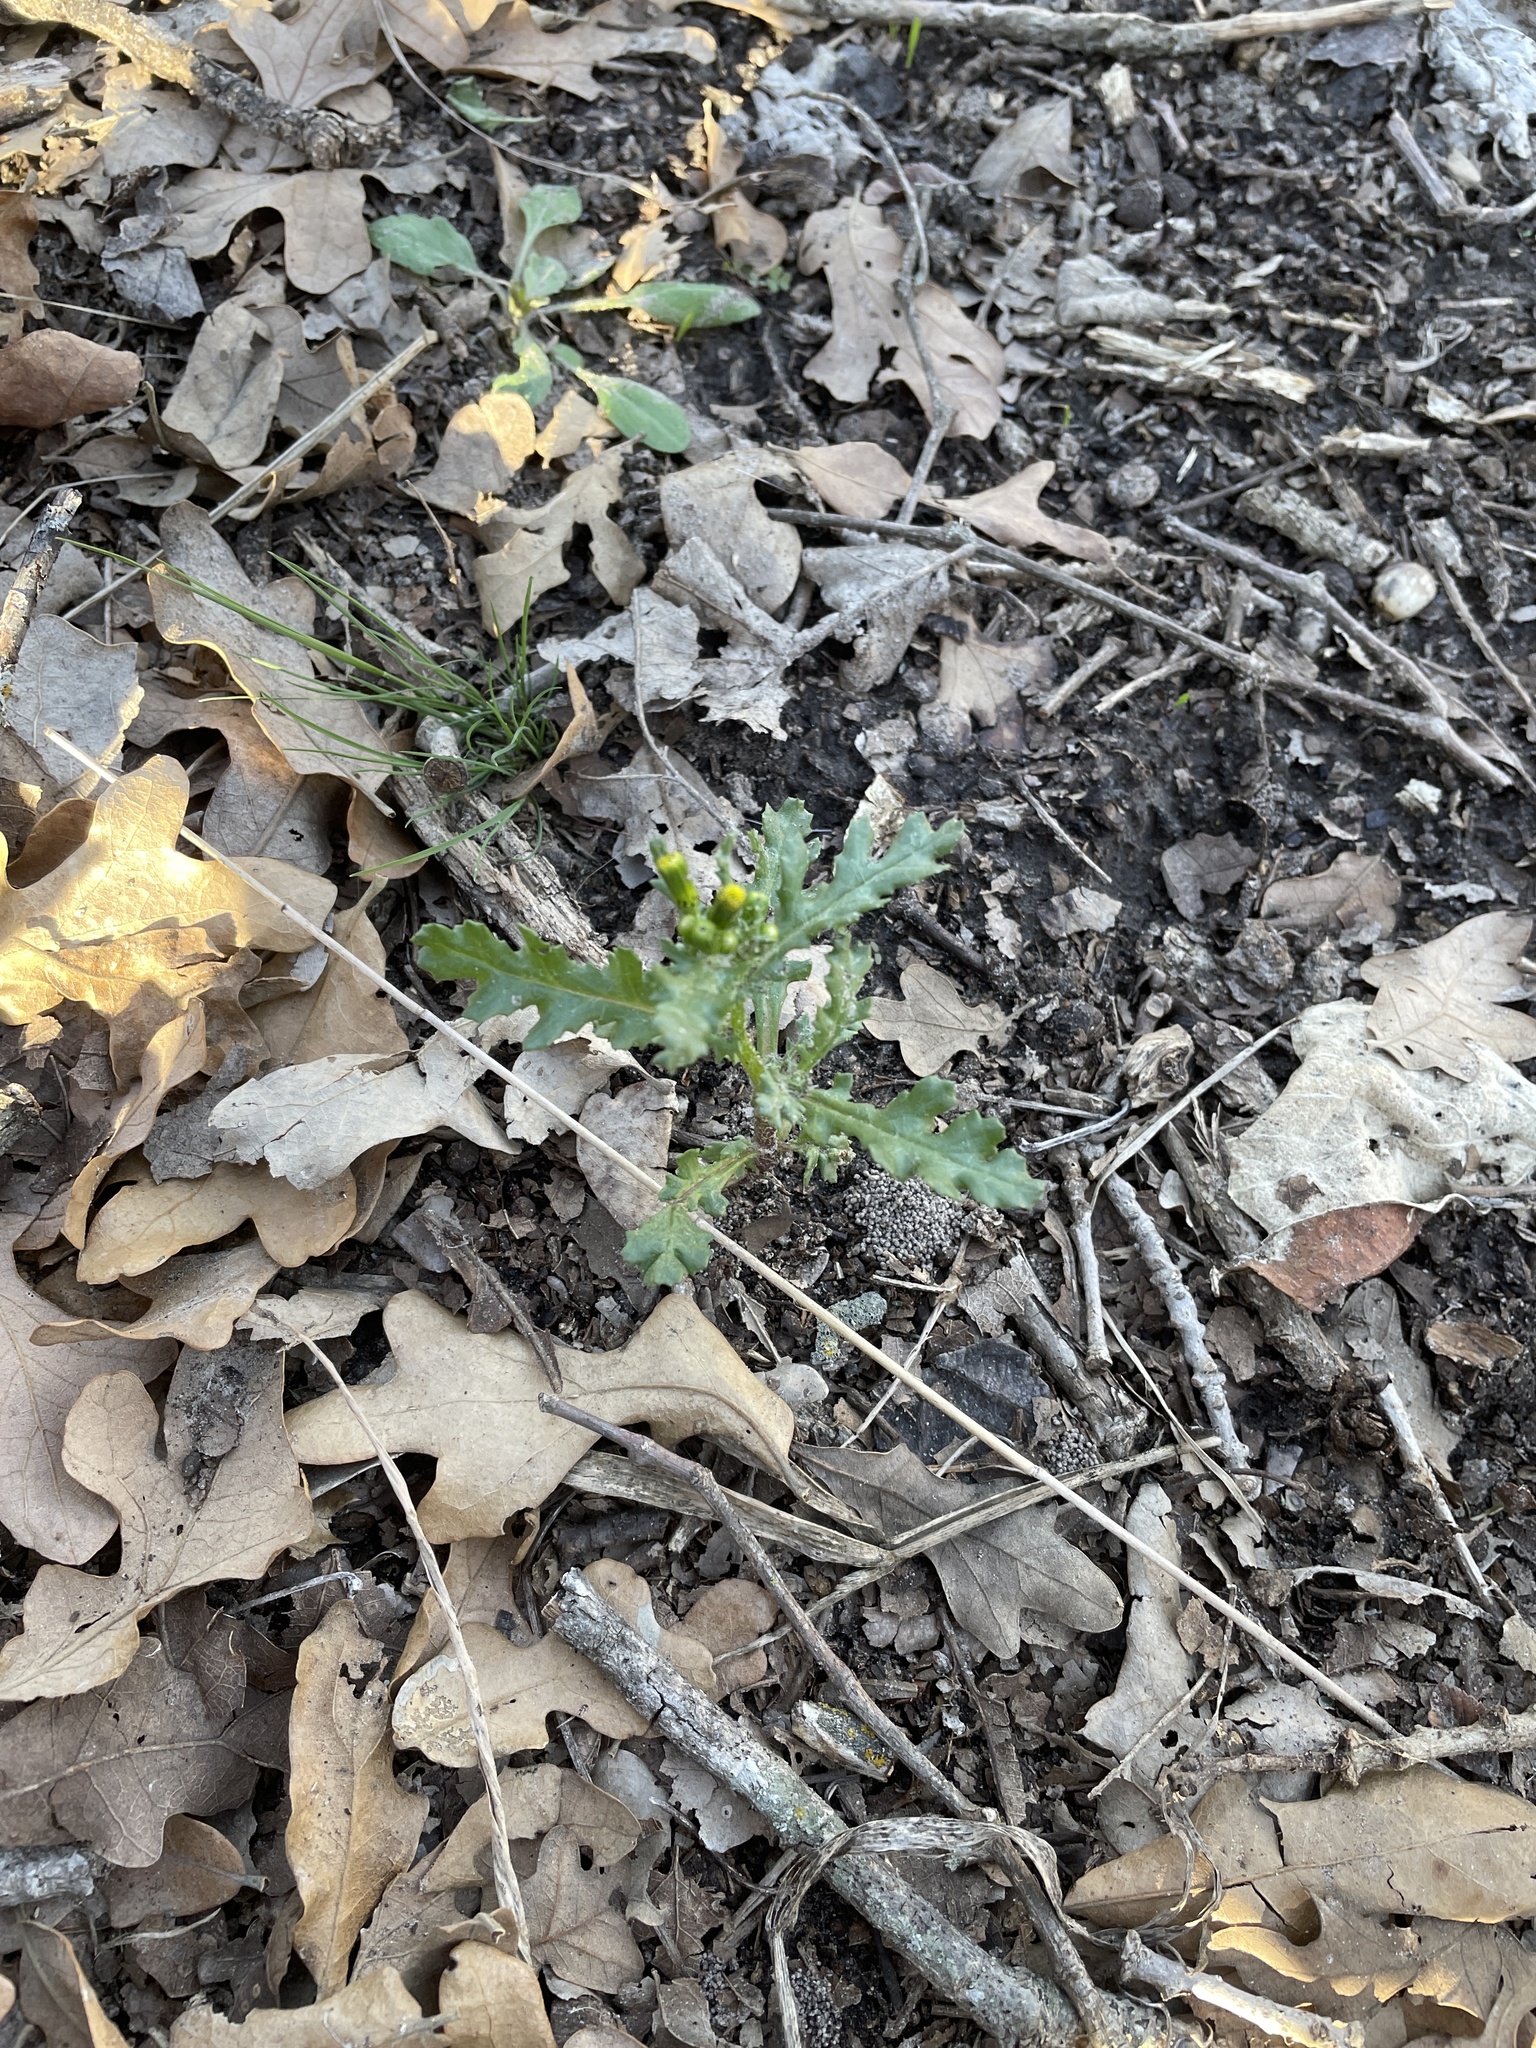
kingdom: Plantae
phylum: Tracheophyta
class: Magnoliopsida
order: Asterales
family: Asteraceae
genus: Senecio
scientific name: Senecio vulgaris
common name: Old-man-in-the-spring
